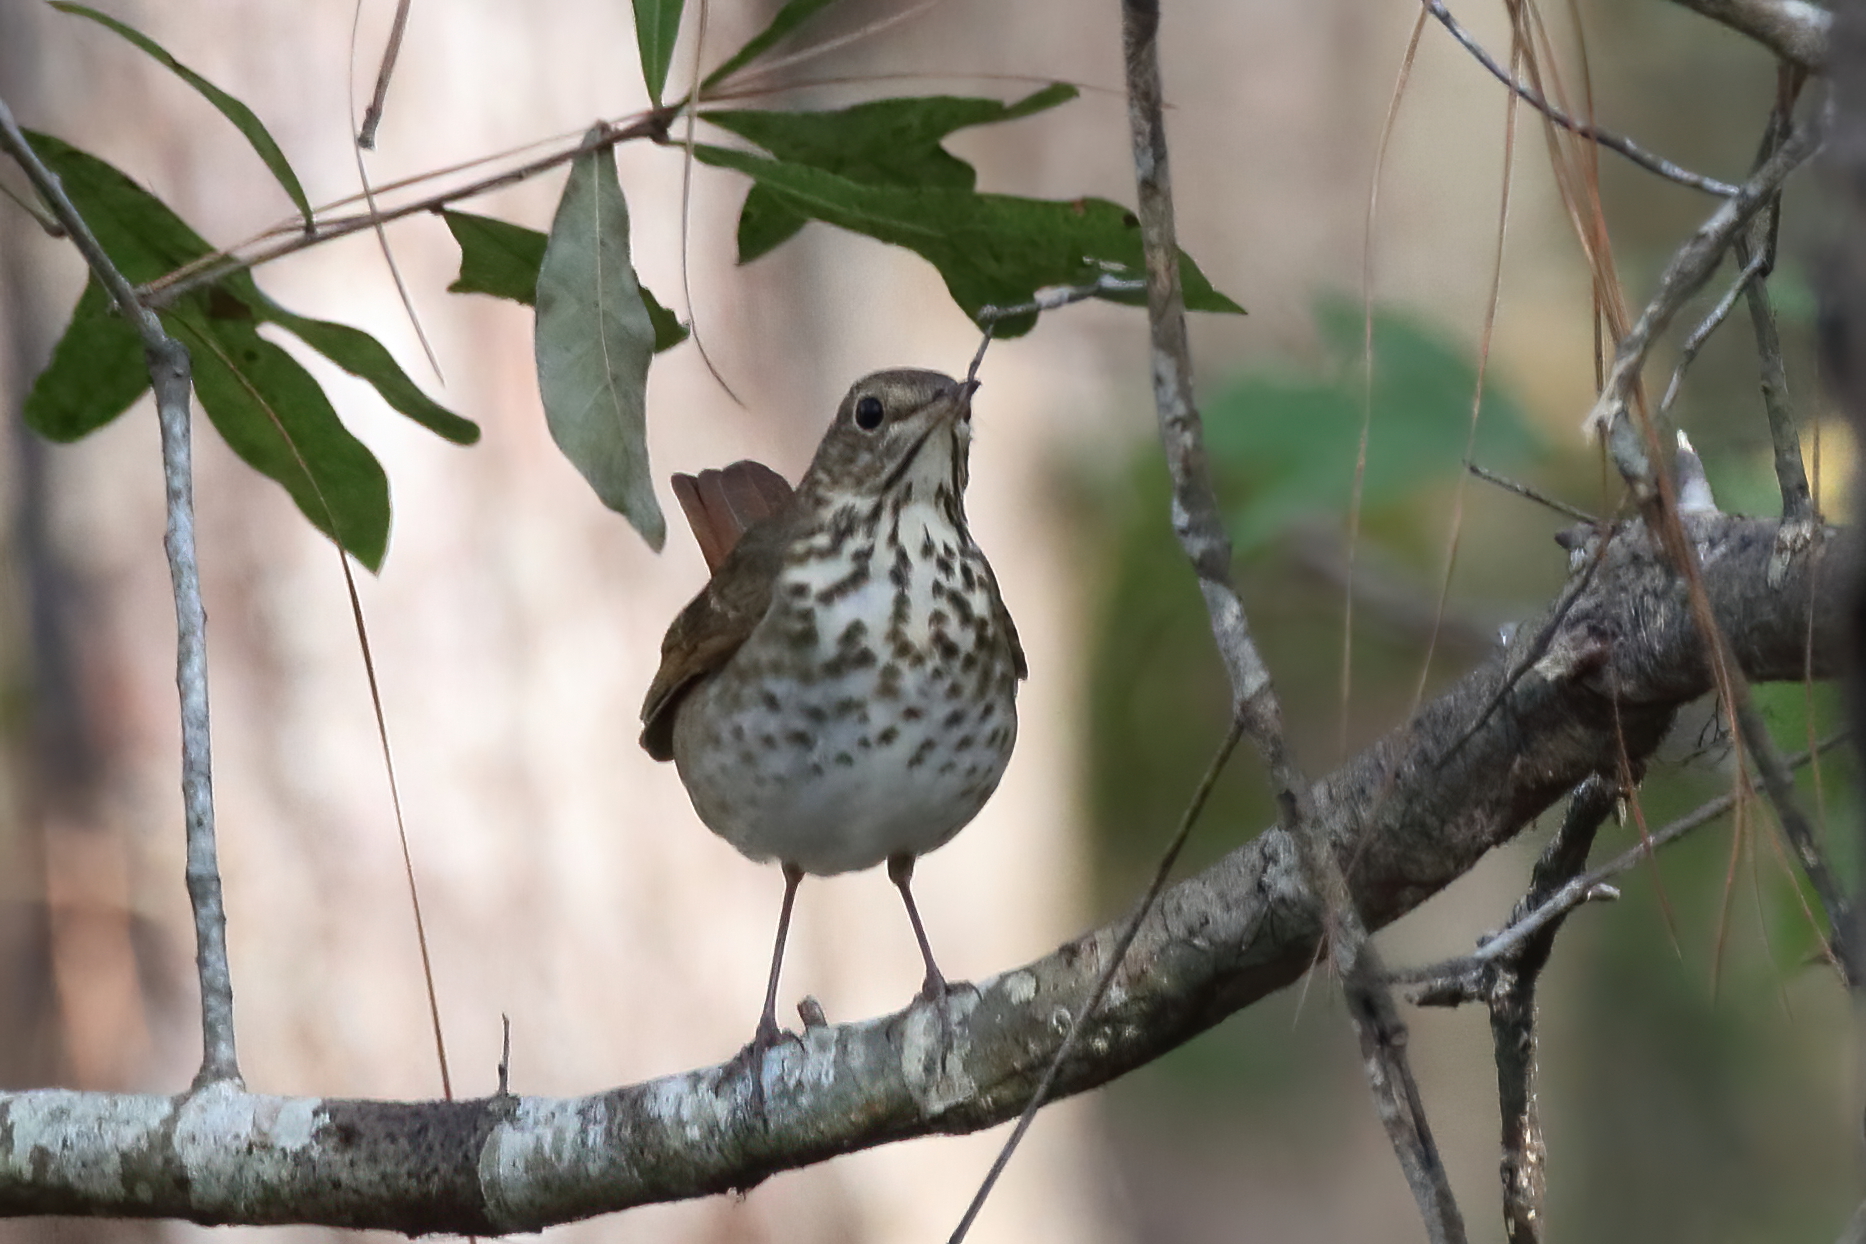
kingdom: Animalia
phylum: Chordata
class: Aves
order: Passeriformes
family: Turdidae
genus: Catharus
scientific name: Catharus guttatus
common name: Hermit thrush
